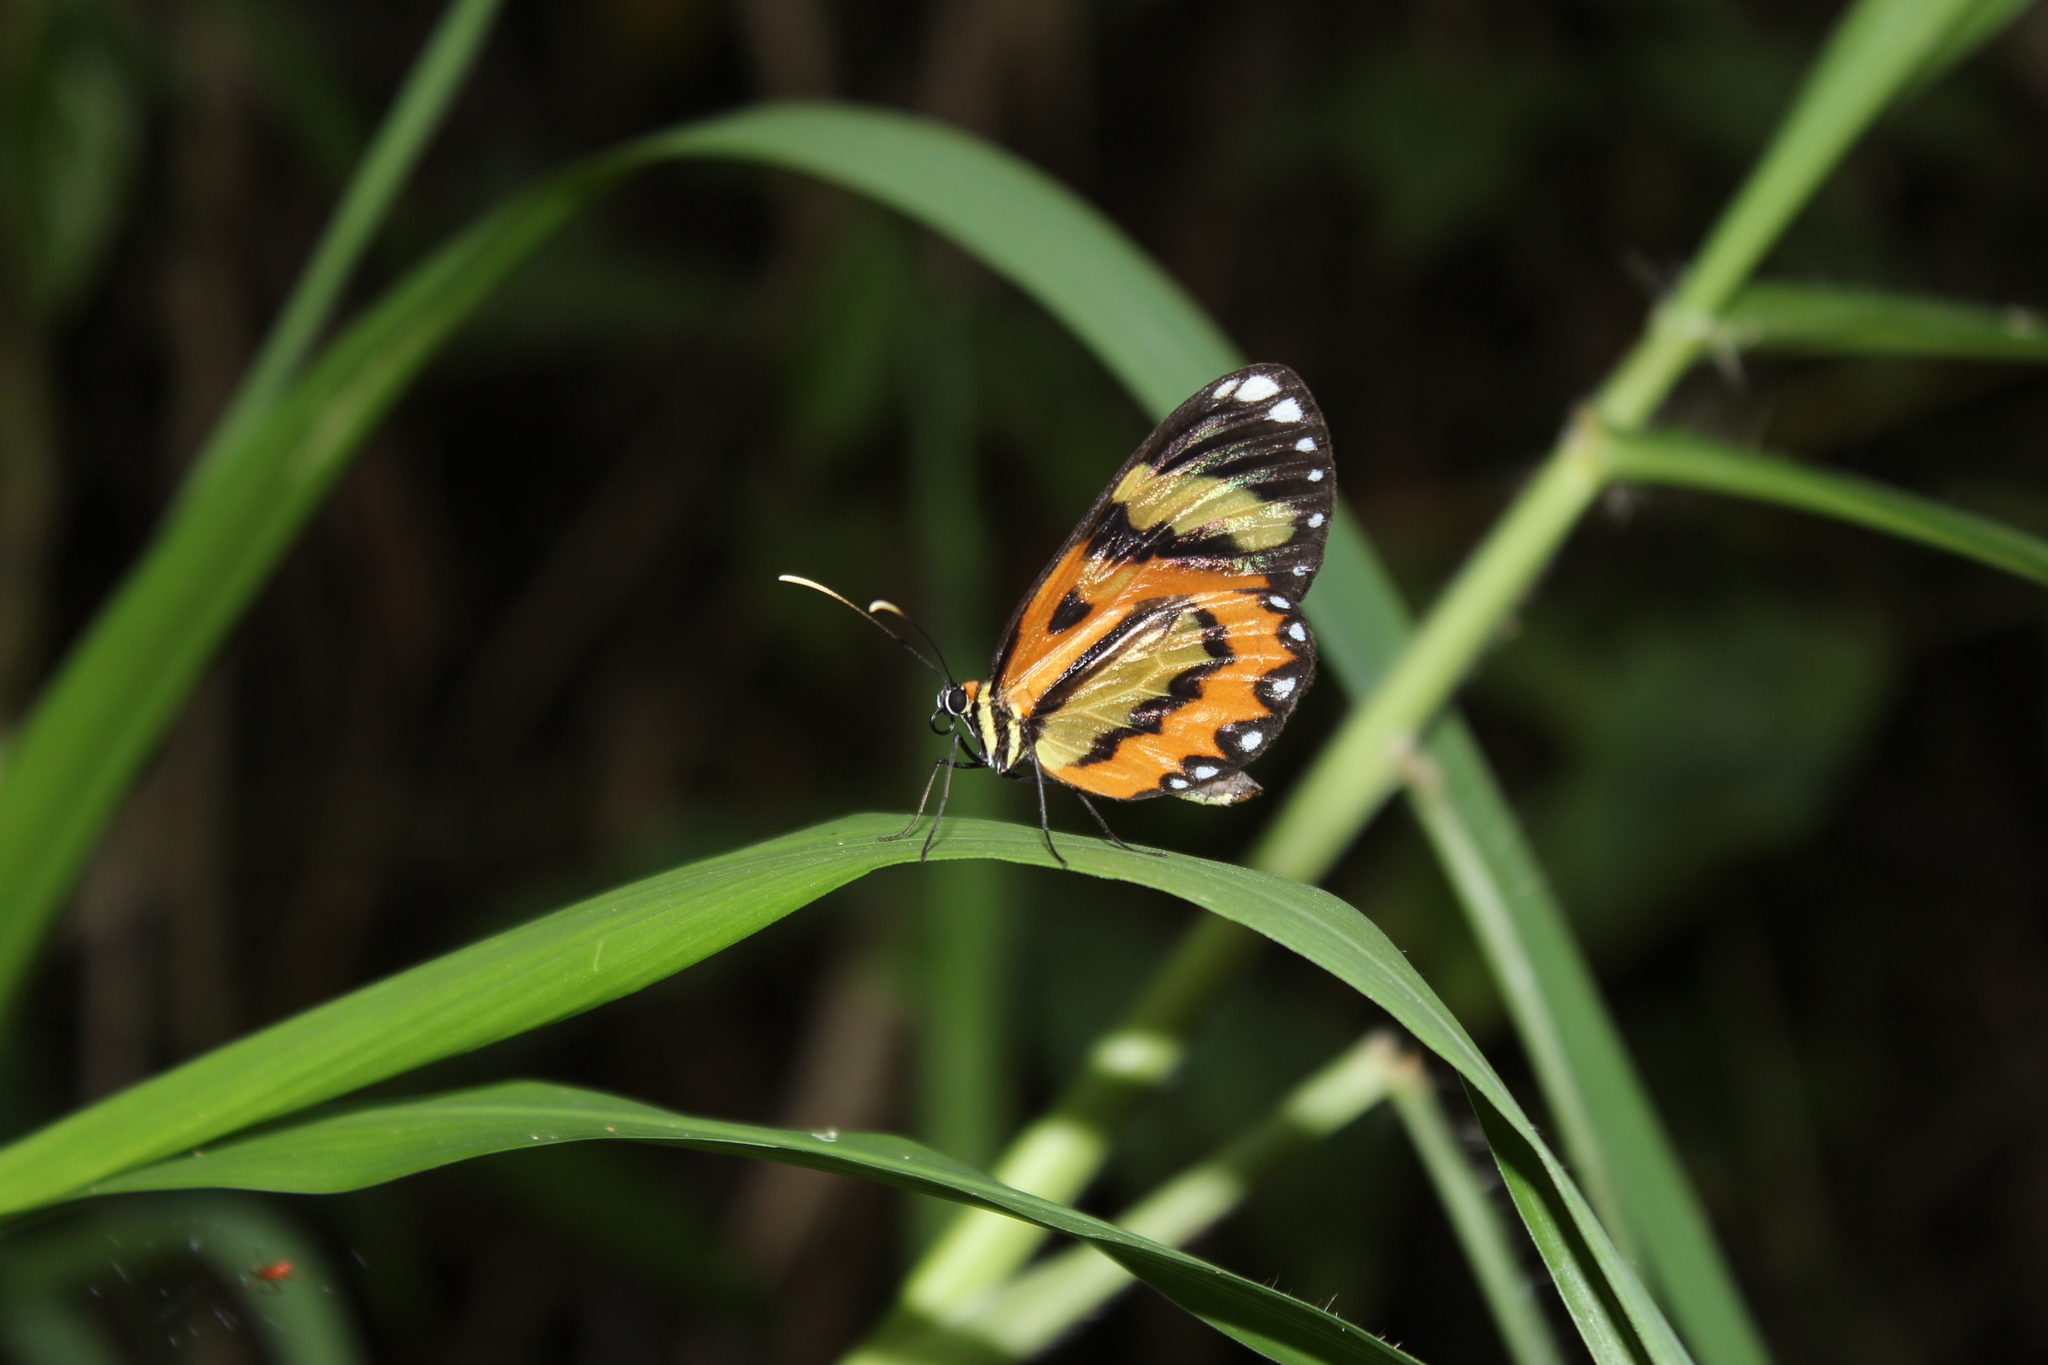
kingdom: Animalia
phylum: Arthropoda
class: Insecta
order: Lepidoptera
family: Nymphalidae
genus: Placidina
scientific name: Placidina euryanassa
